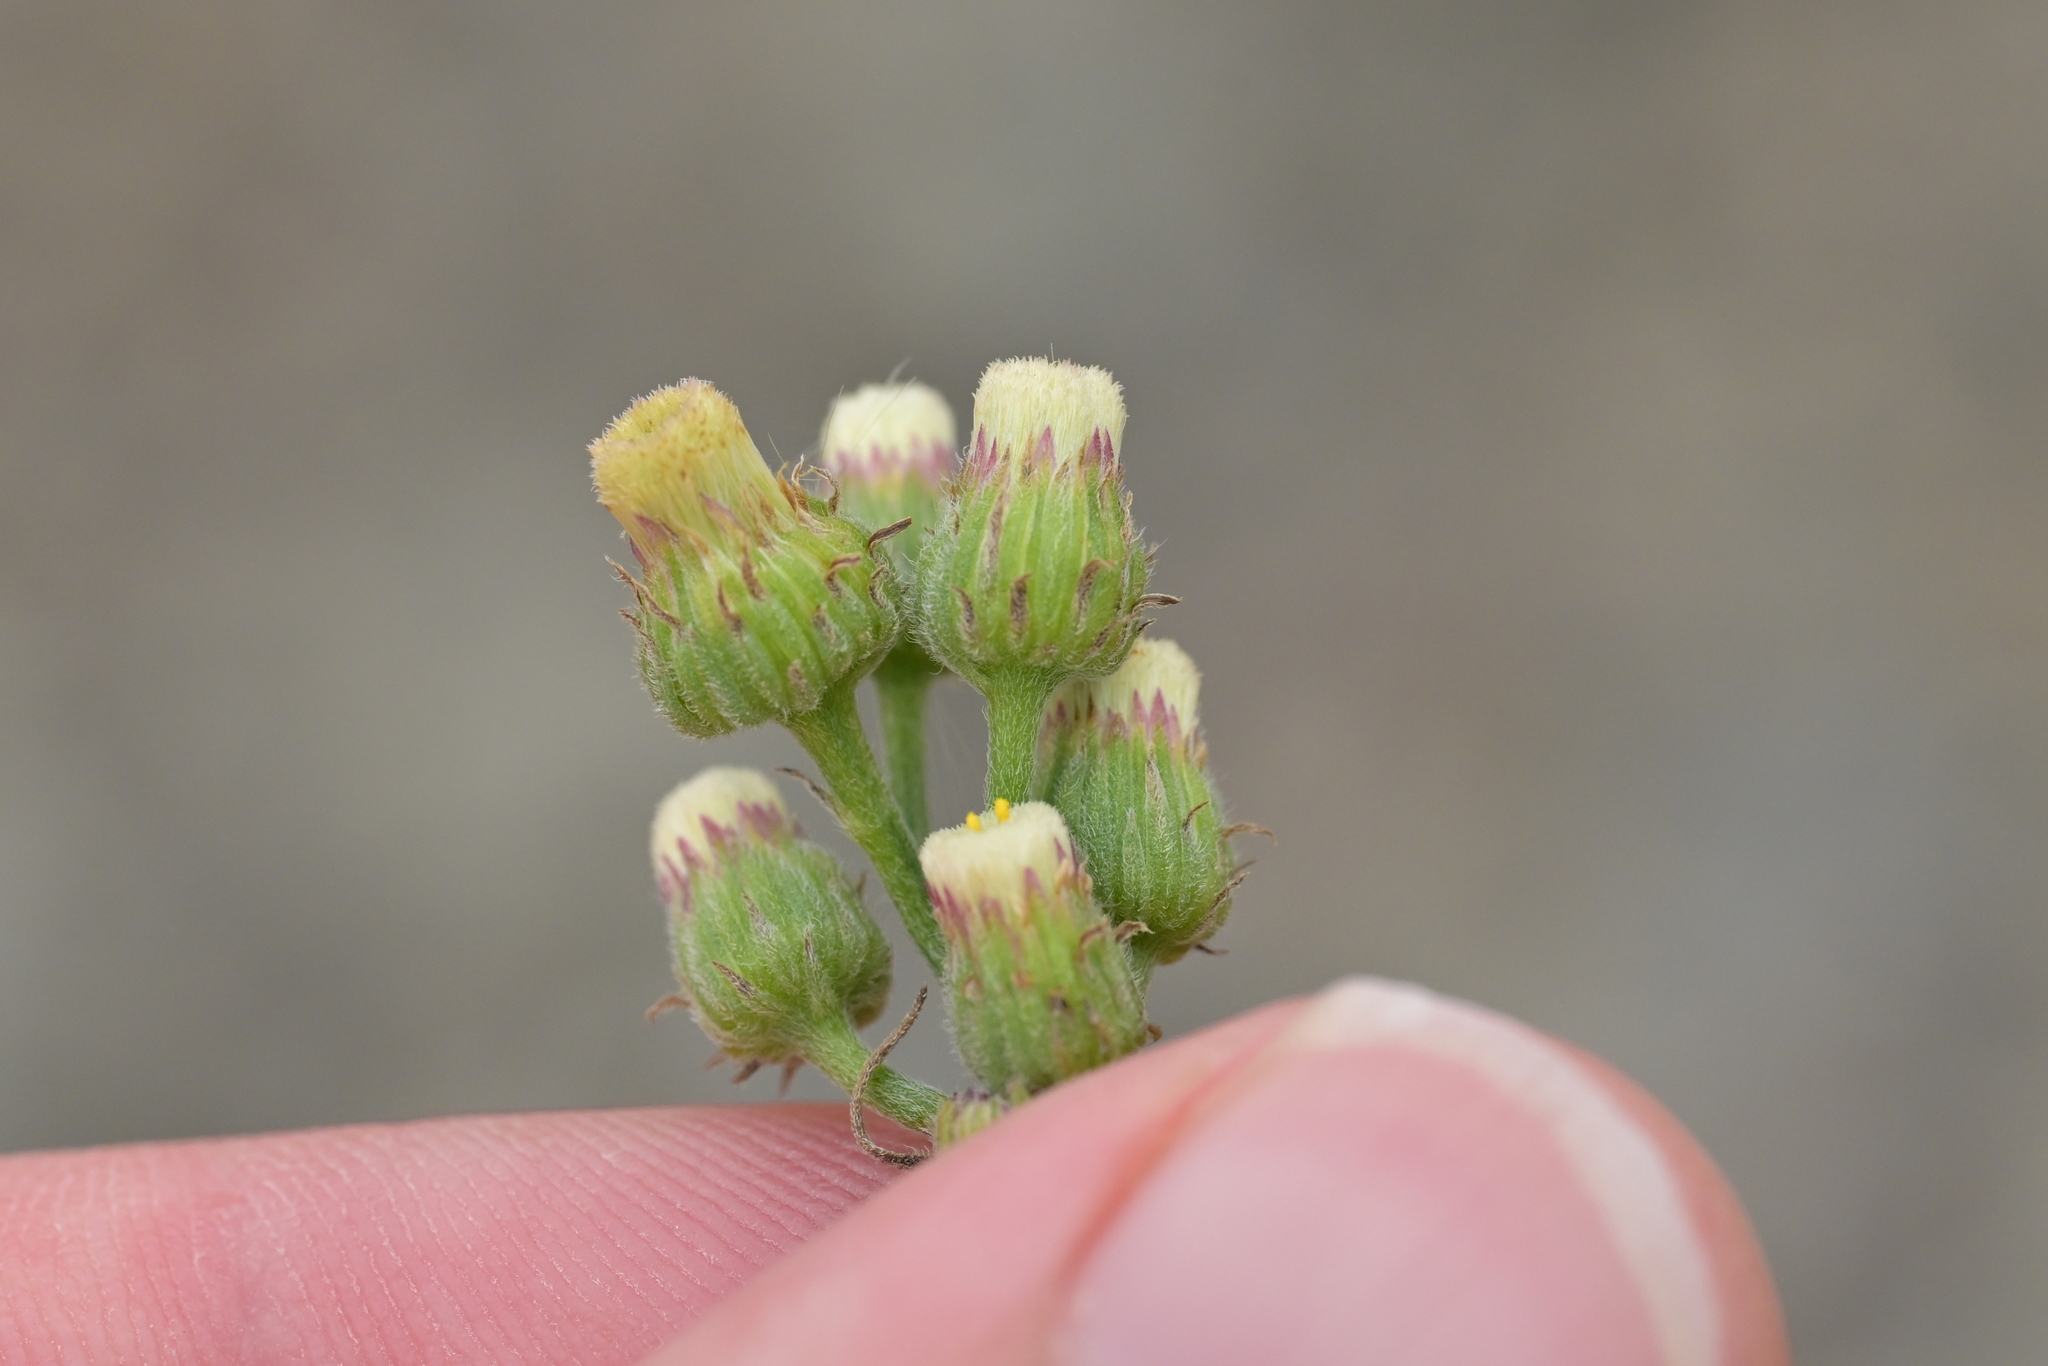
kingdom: Plantae
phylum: Tracheophyta
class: Magnoliopsida
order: Asterales
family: Asteraceae
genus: Erigeron
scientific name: Erigeron bonariensis
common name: Argentine fleabane
